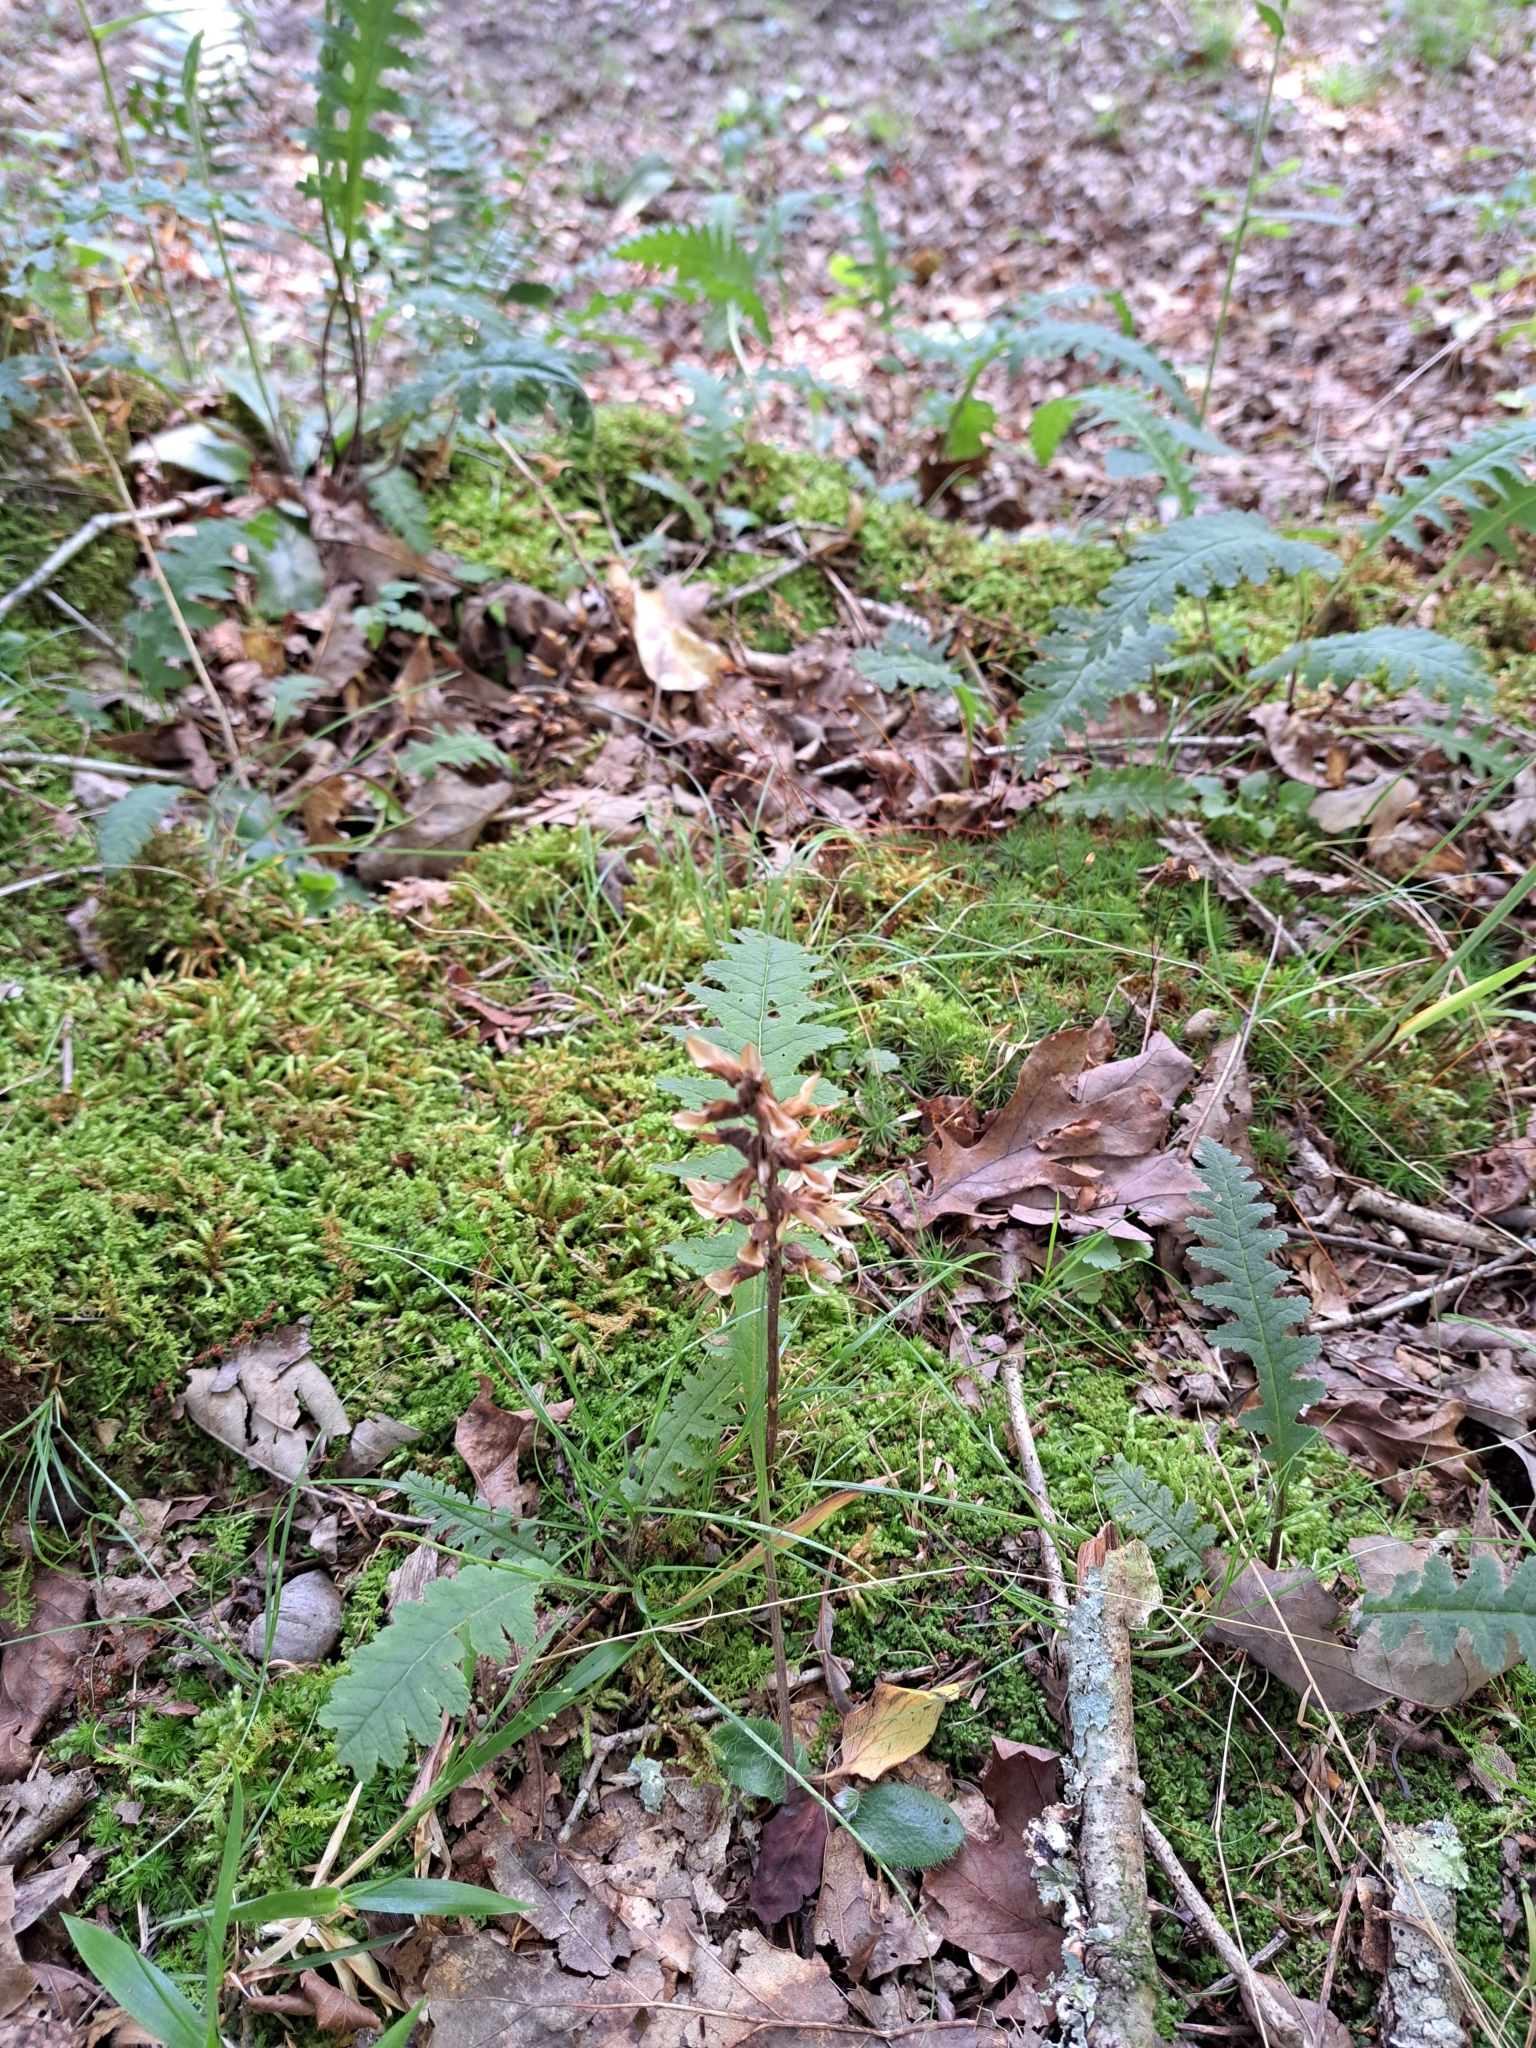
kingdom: Plantae
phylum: Tracheophyta
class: Magnoliopsida
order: Lamiales
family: Orobanchaceae
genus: Pedicularis
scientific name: Pedicularis canadensis
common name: Early lousewort
